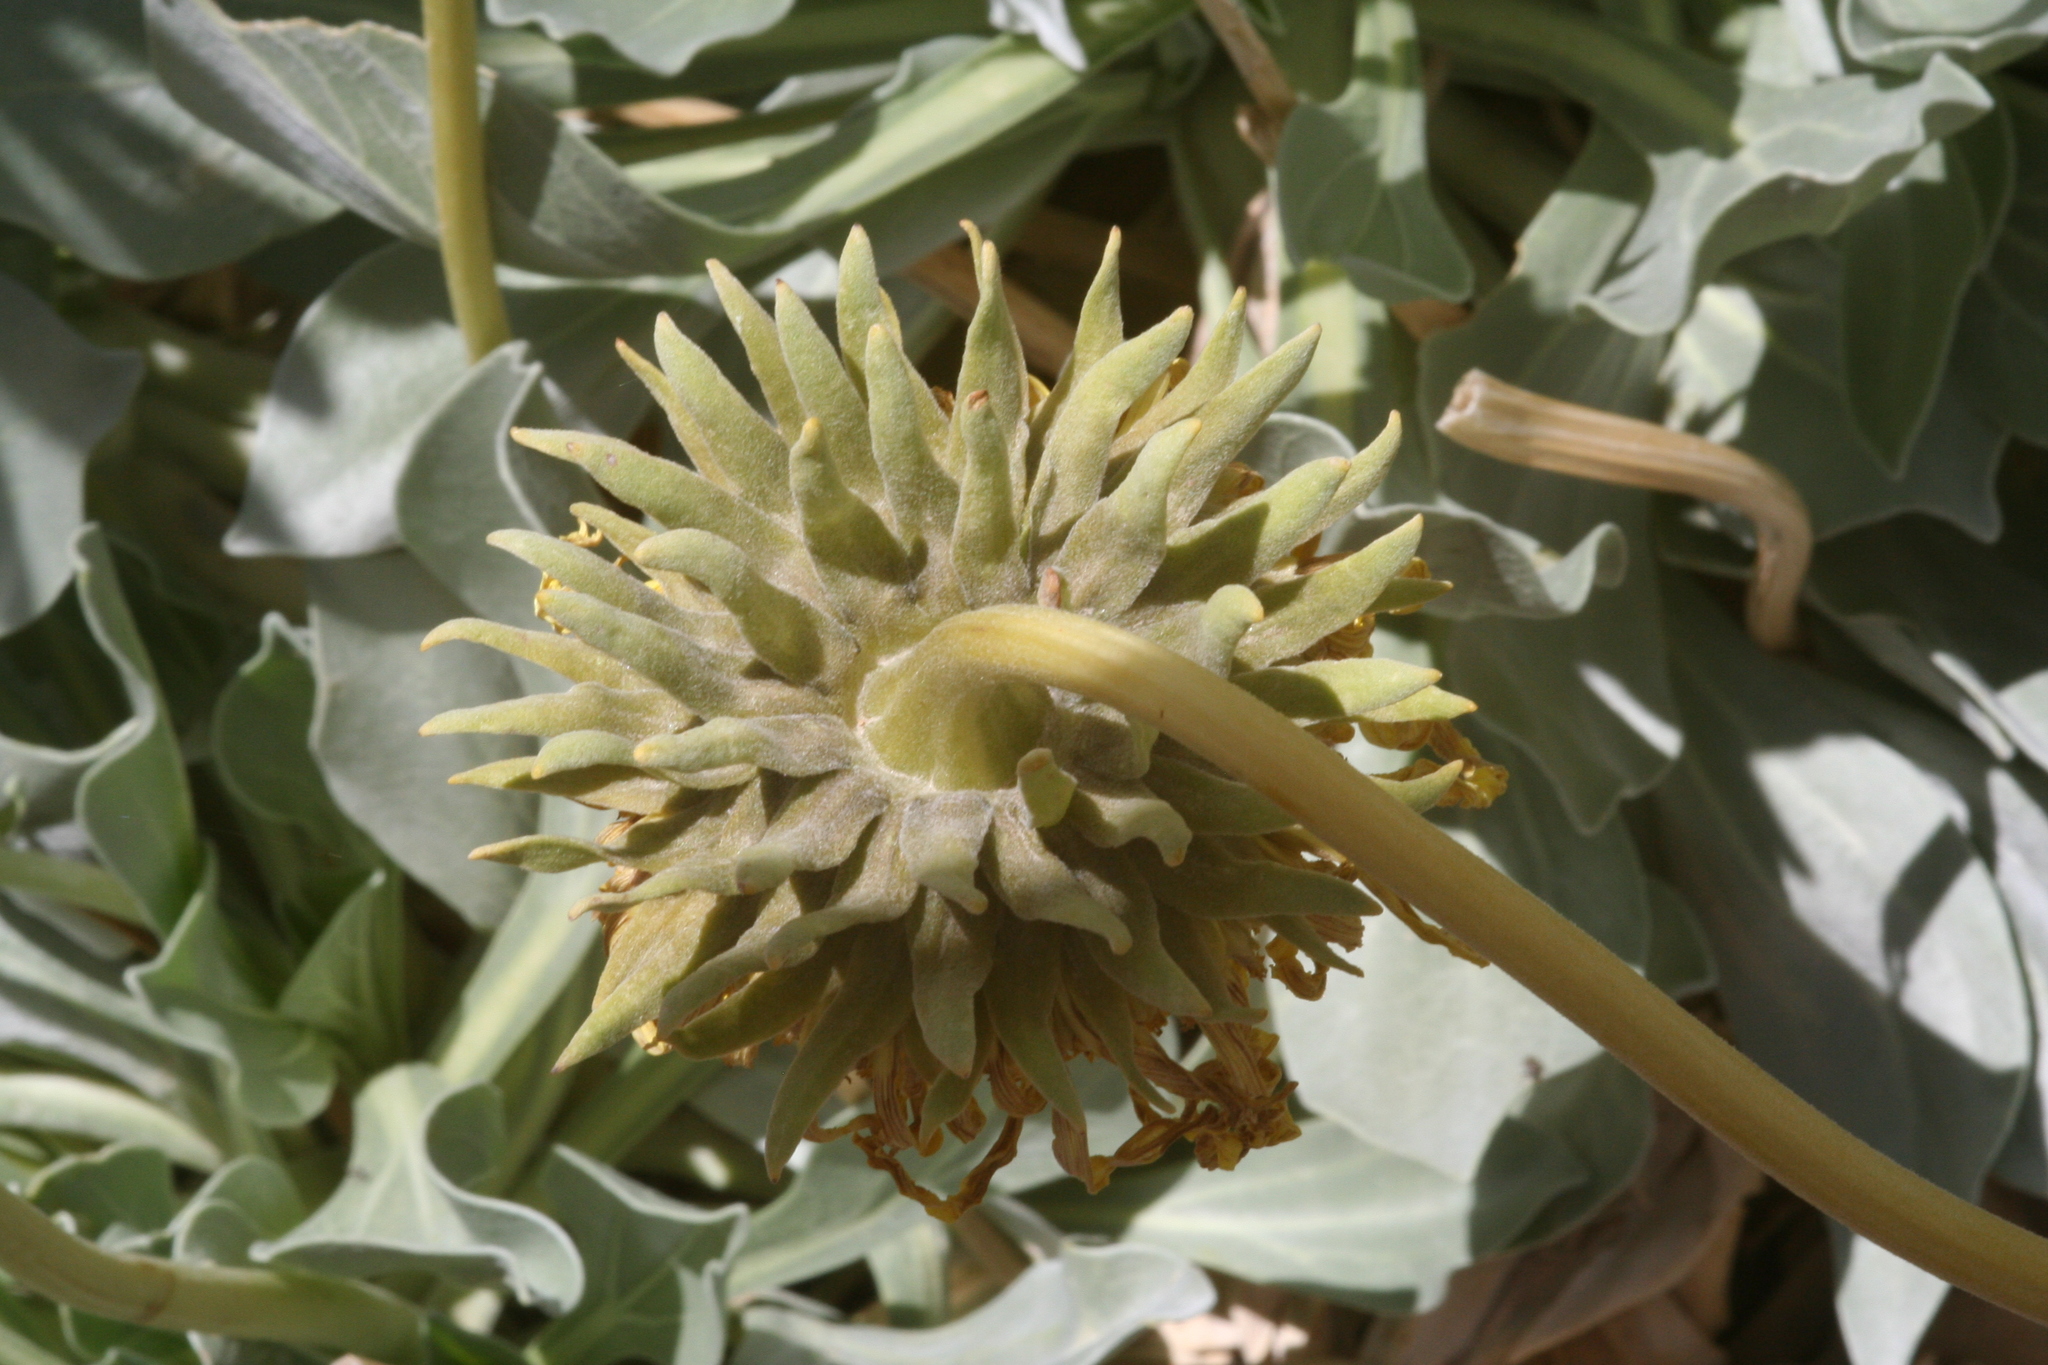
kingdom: Plantae
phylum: Tracheophyta
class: Magnoliopsida
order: Asterales
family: Asteraceae
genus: Enceliopsis
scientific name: Enceliopsis covillei
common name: Panamint daisy
